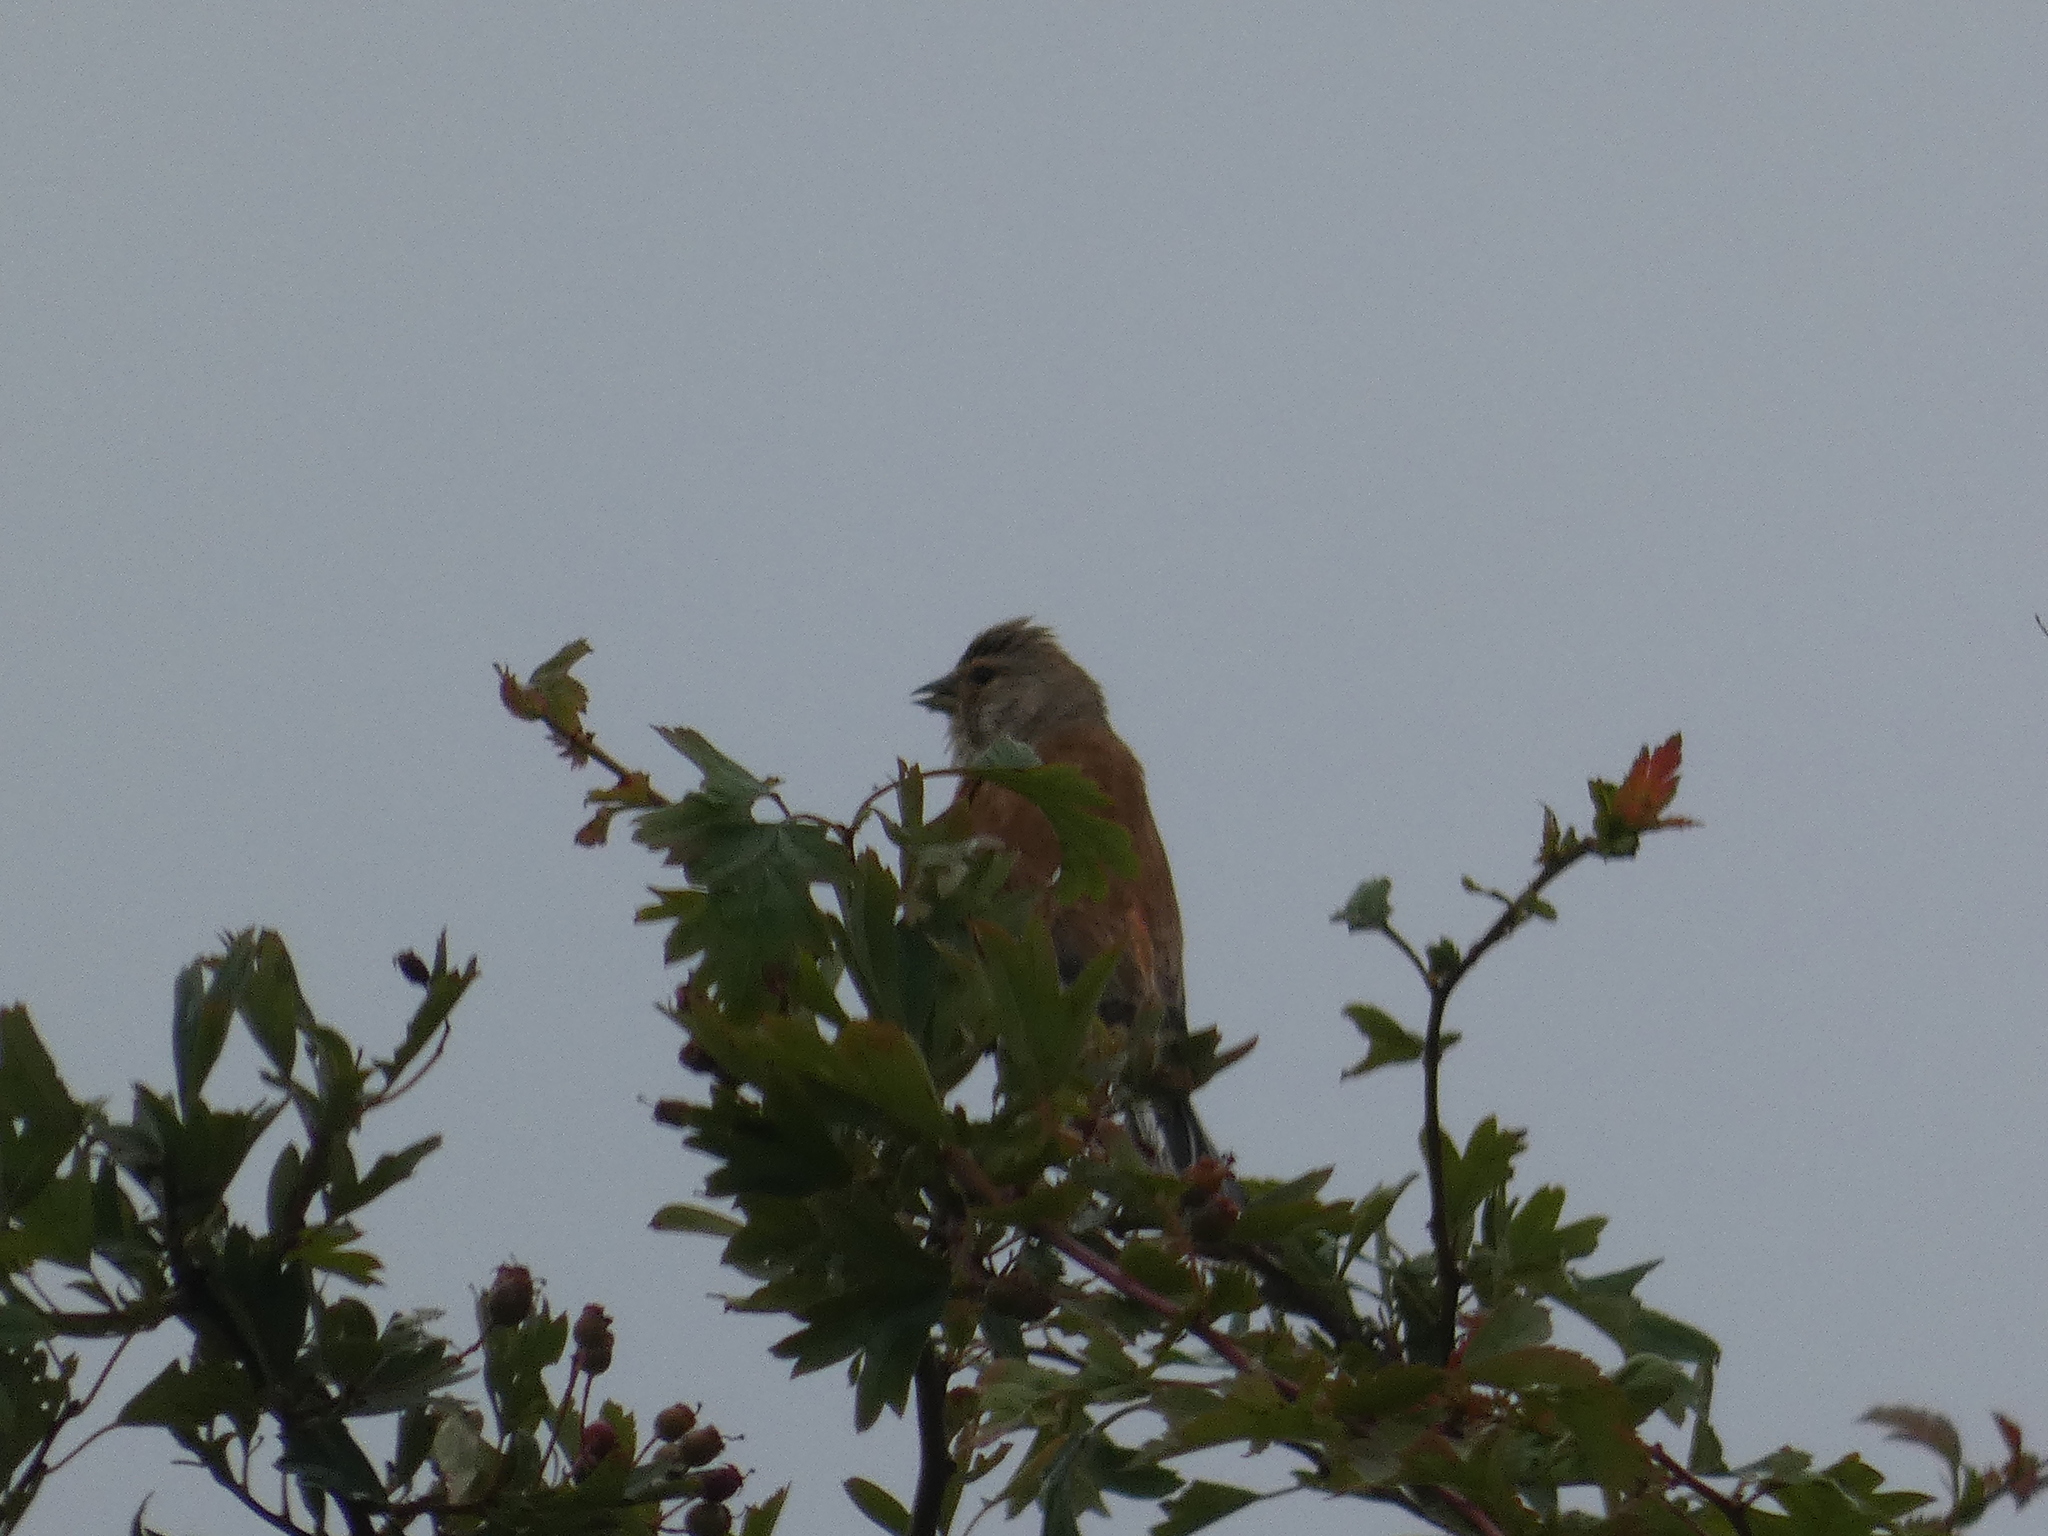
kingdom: Animalia
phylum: Chordata
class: Aves
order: Passeriformes
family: Fringillidae
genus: Linaria
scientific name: Linaria cannabina
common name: Common linnet
